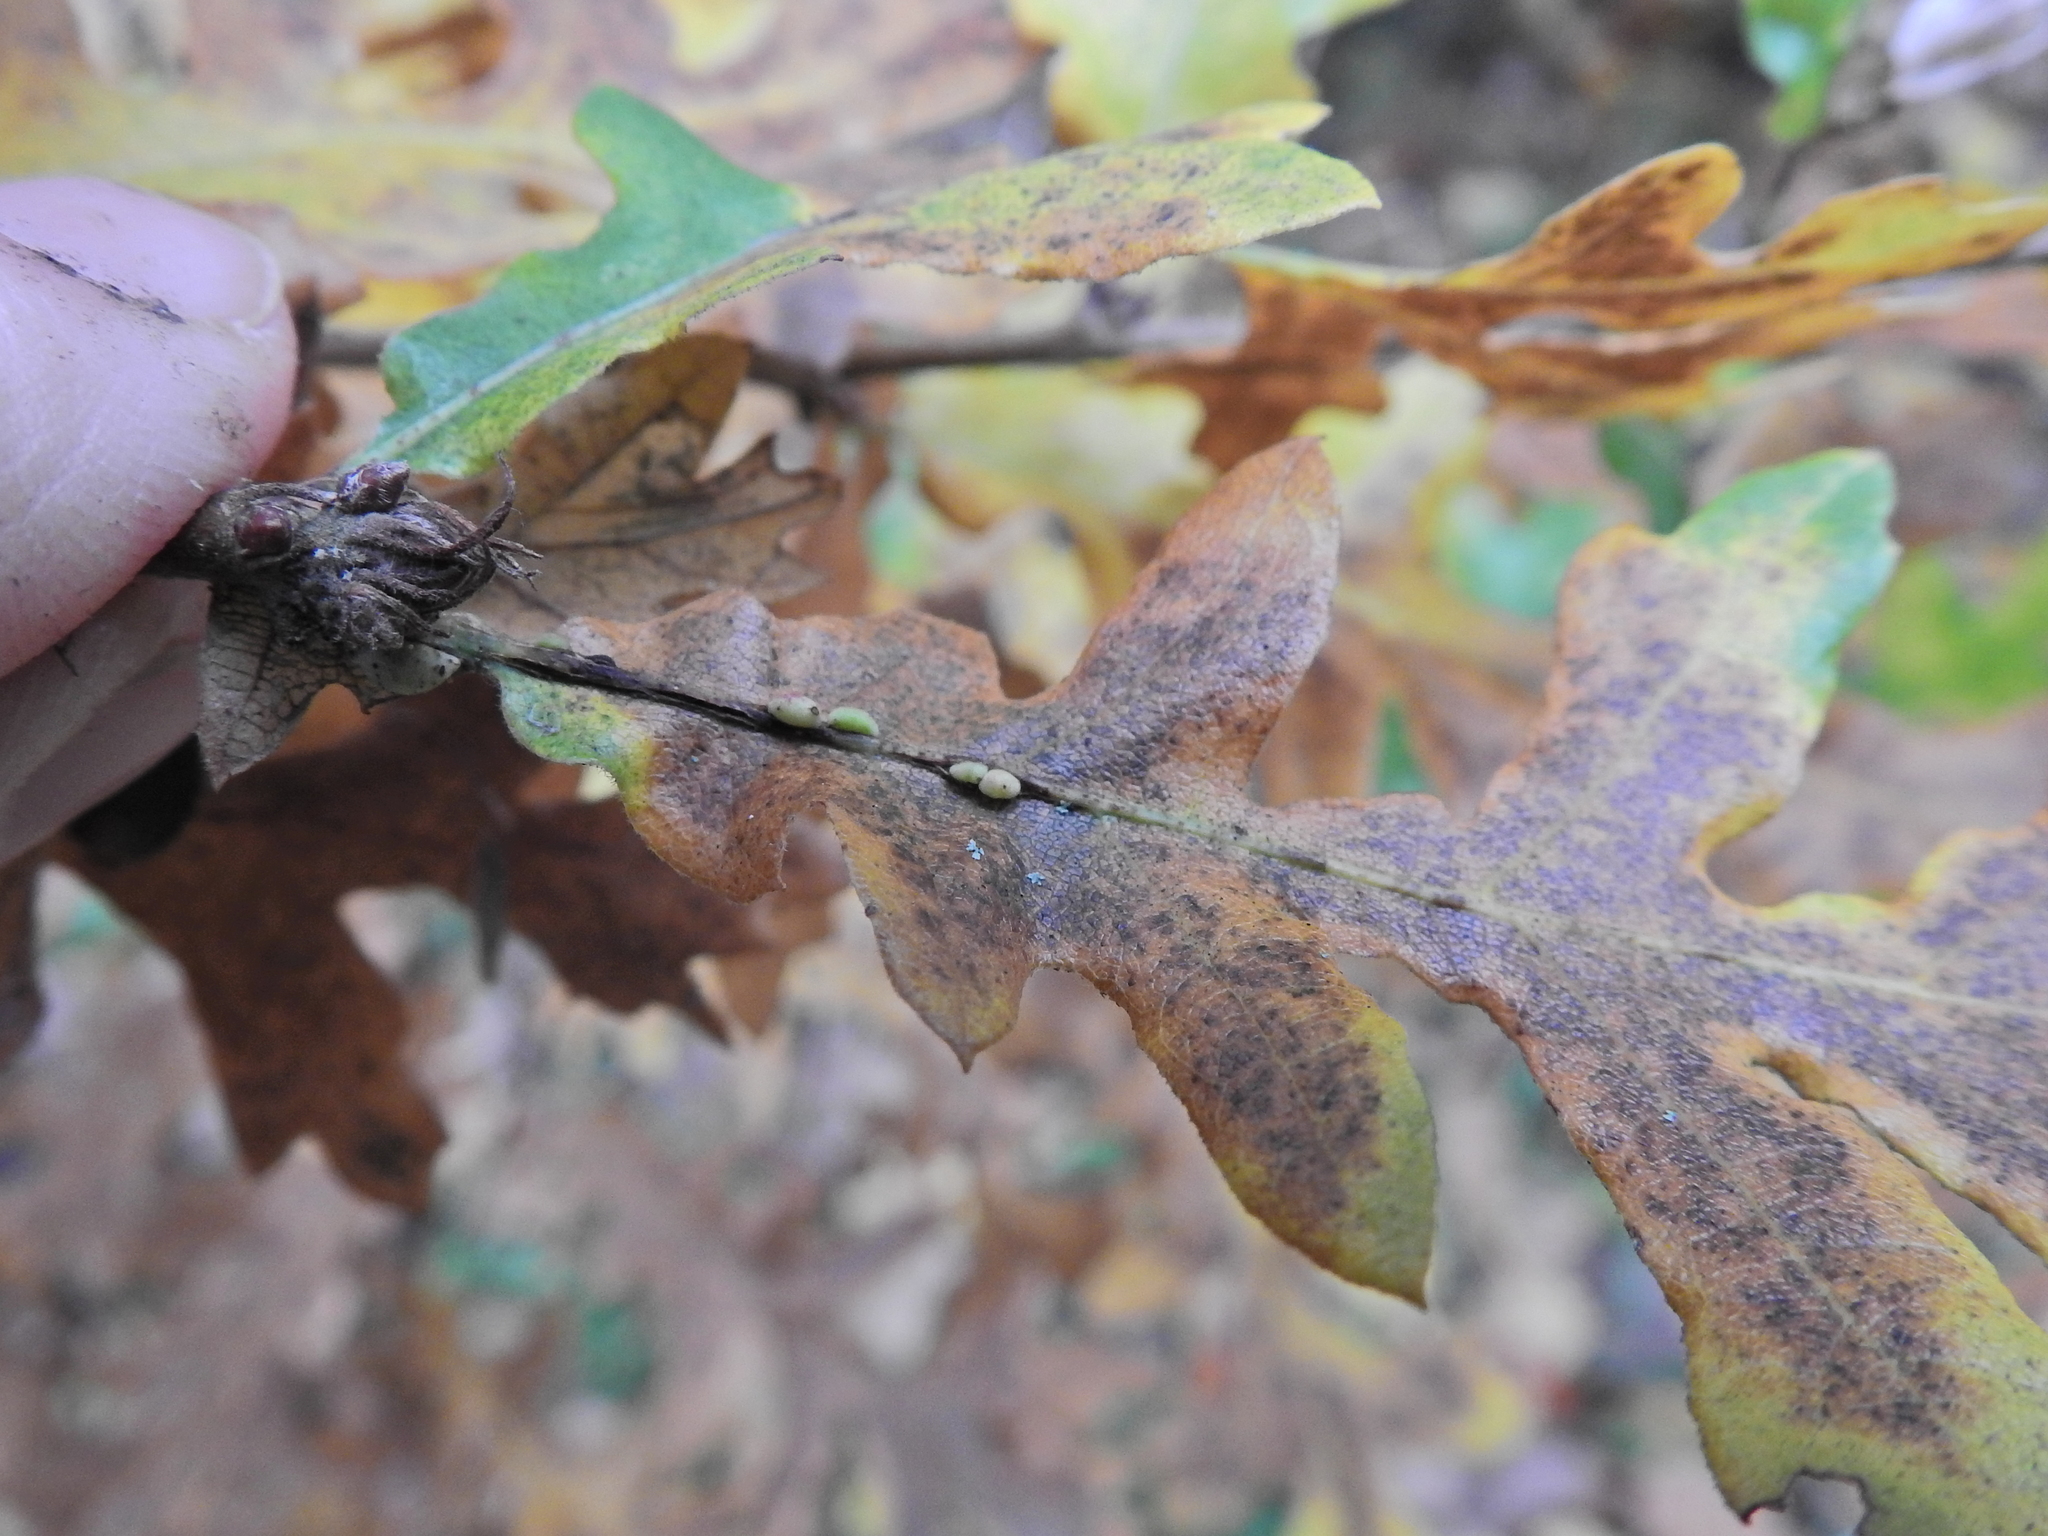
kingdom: Animalia
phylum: Arthropoda
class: Insecta
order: Hymenoptera
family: Cynipidae
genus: Neuroterus
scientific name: Neuroterus saliens
